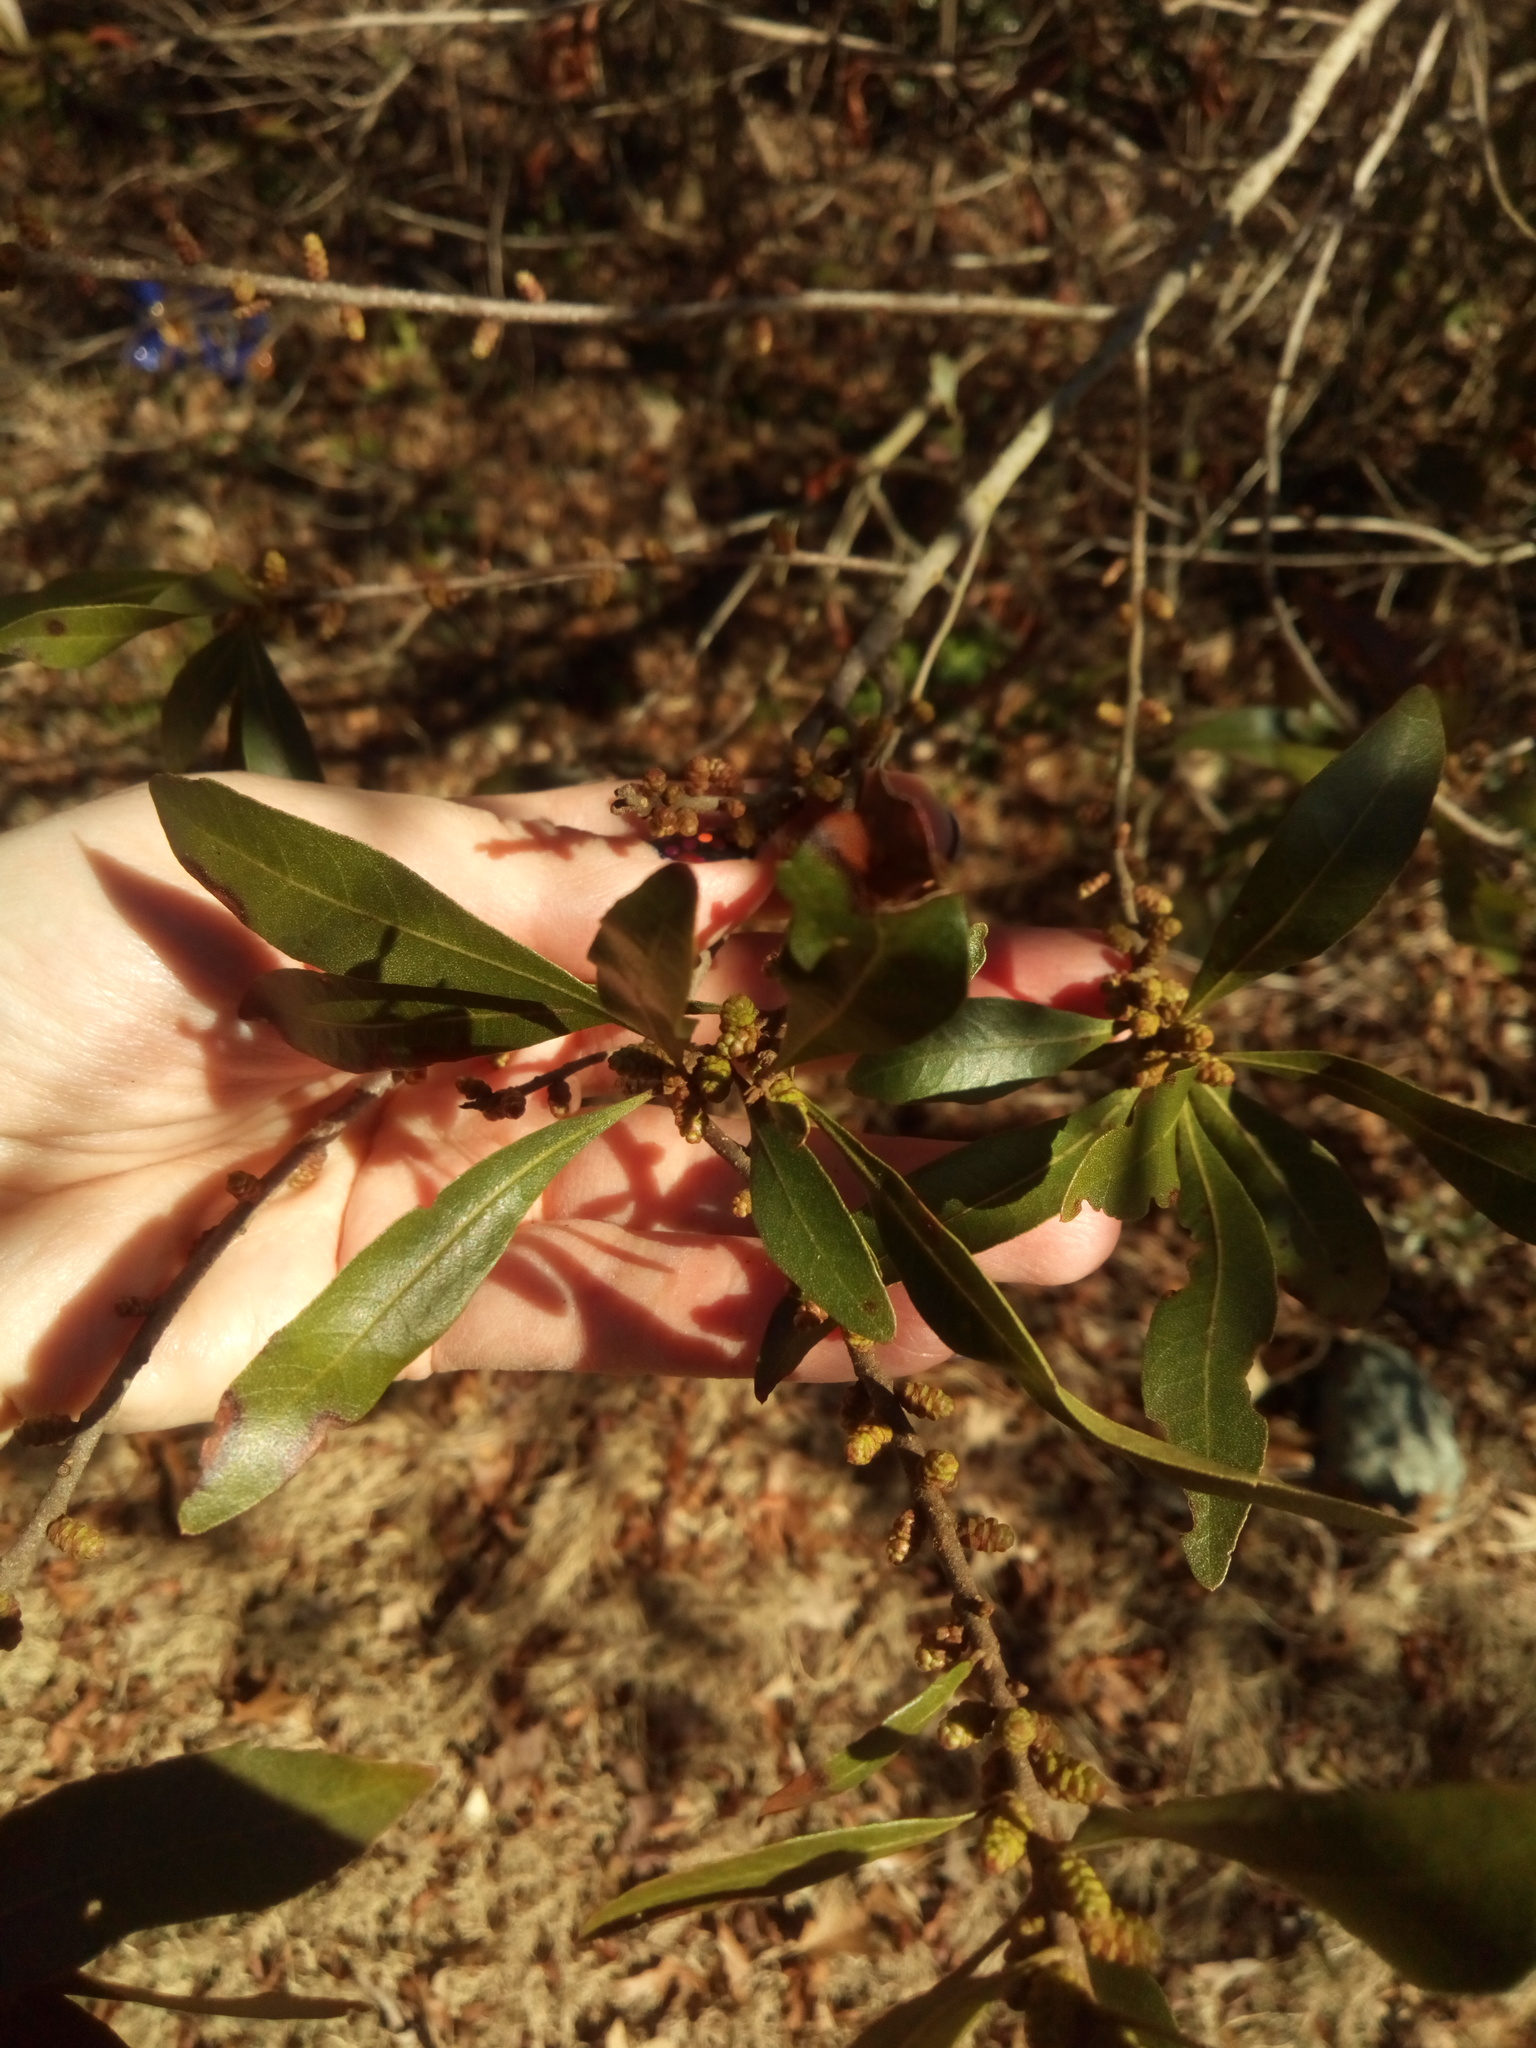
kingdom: Plantae
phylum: Tracheophyta
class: Magnoliopsida
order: Fagales
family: Myricaceae
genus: Morella
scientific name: Morella cerifera
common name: Wax myrtle
